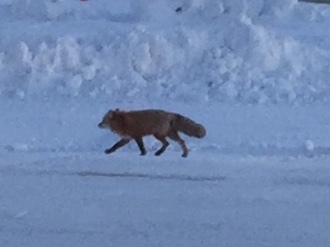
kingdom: Animalia
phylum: Chordata
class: Mammalia
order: Carnivora
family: Canidae
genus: Vulpes
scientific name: Vulpes vulpes
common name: Red fox
